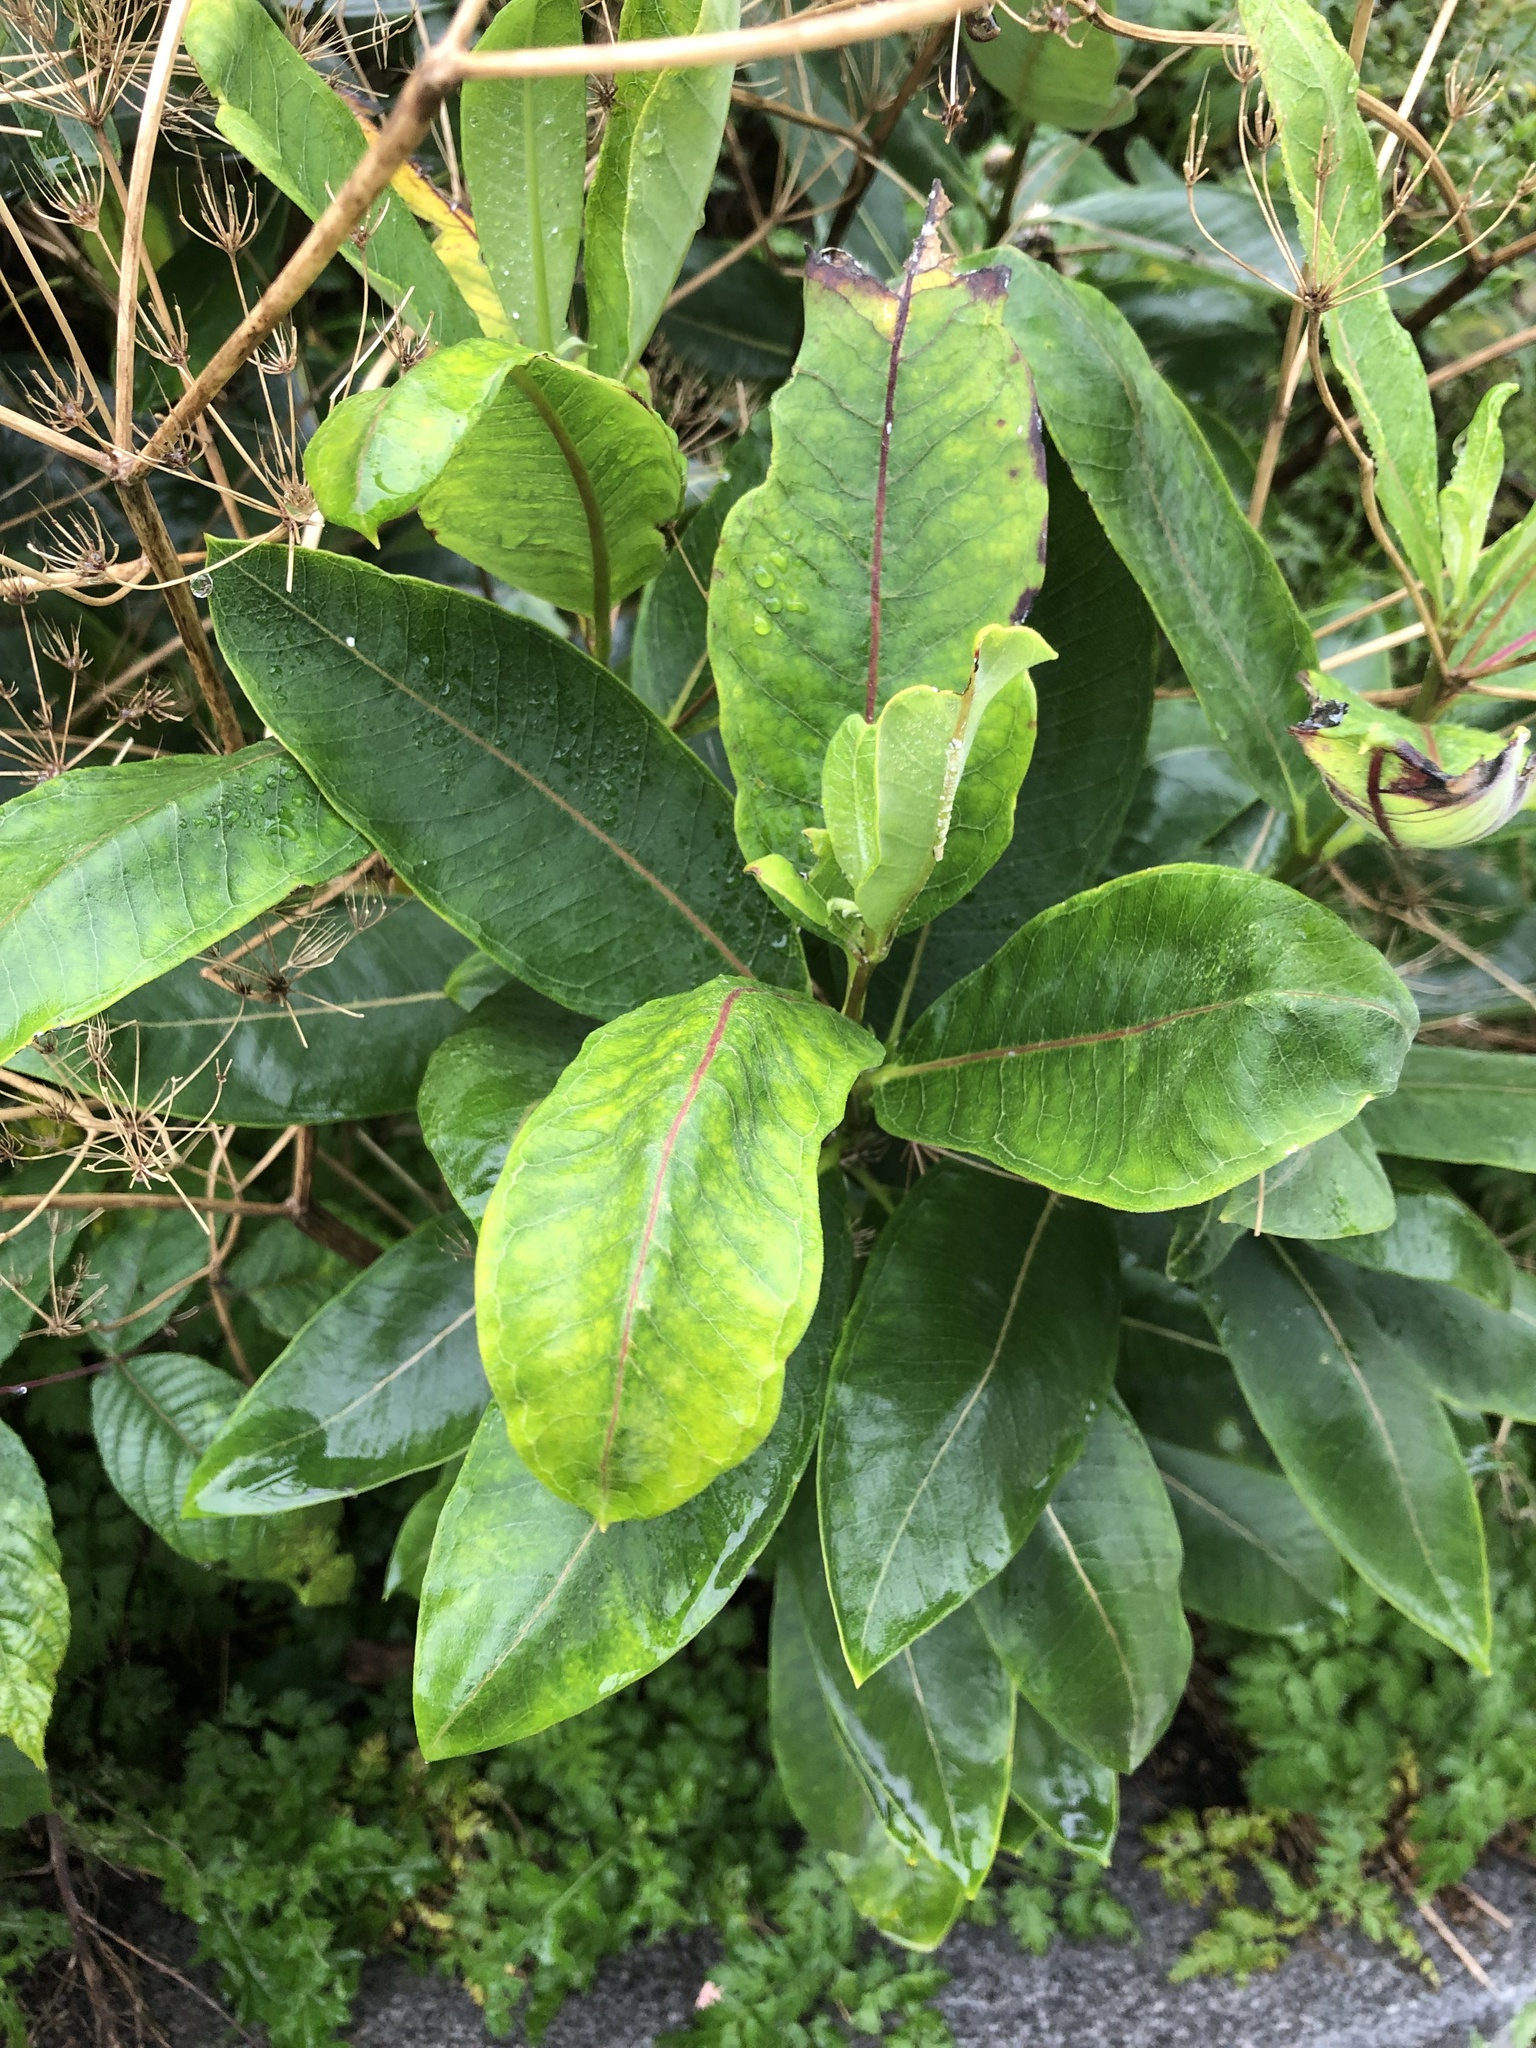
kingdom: Plantae
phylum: Tracheophyta
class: Magnoliopsida
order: Gentianales
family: Apocynaceae
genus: Asclepias
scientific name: Asclepias syriaca
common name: Common milkweed
